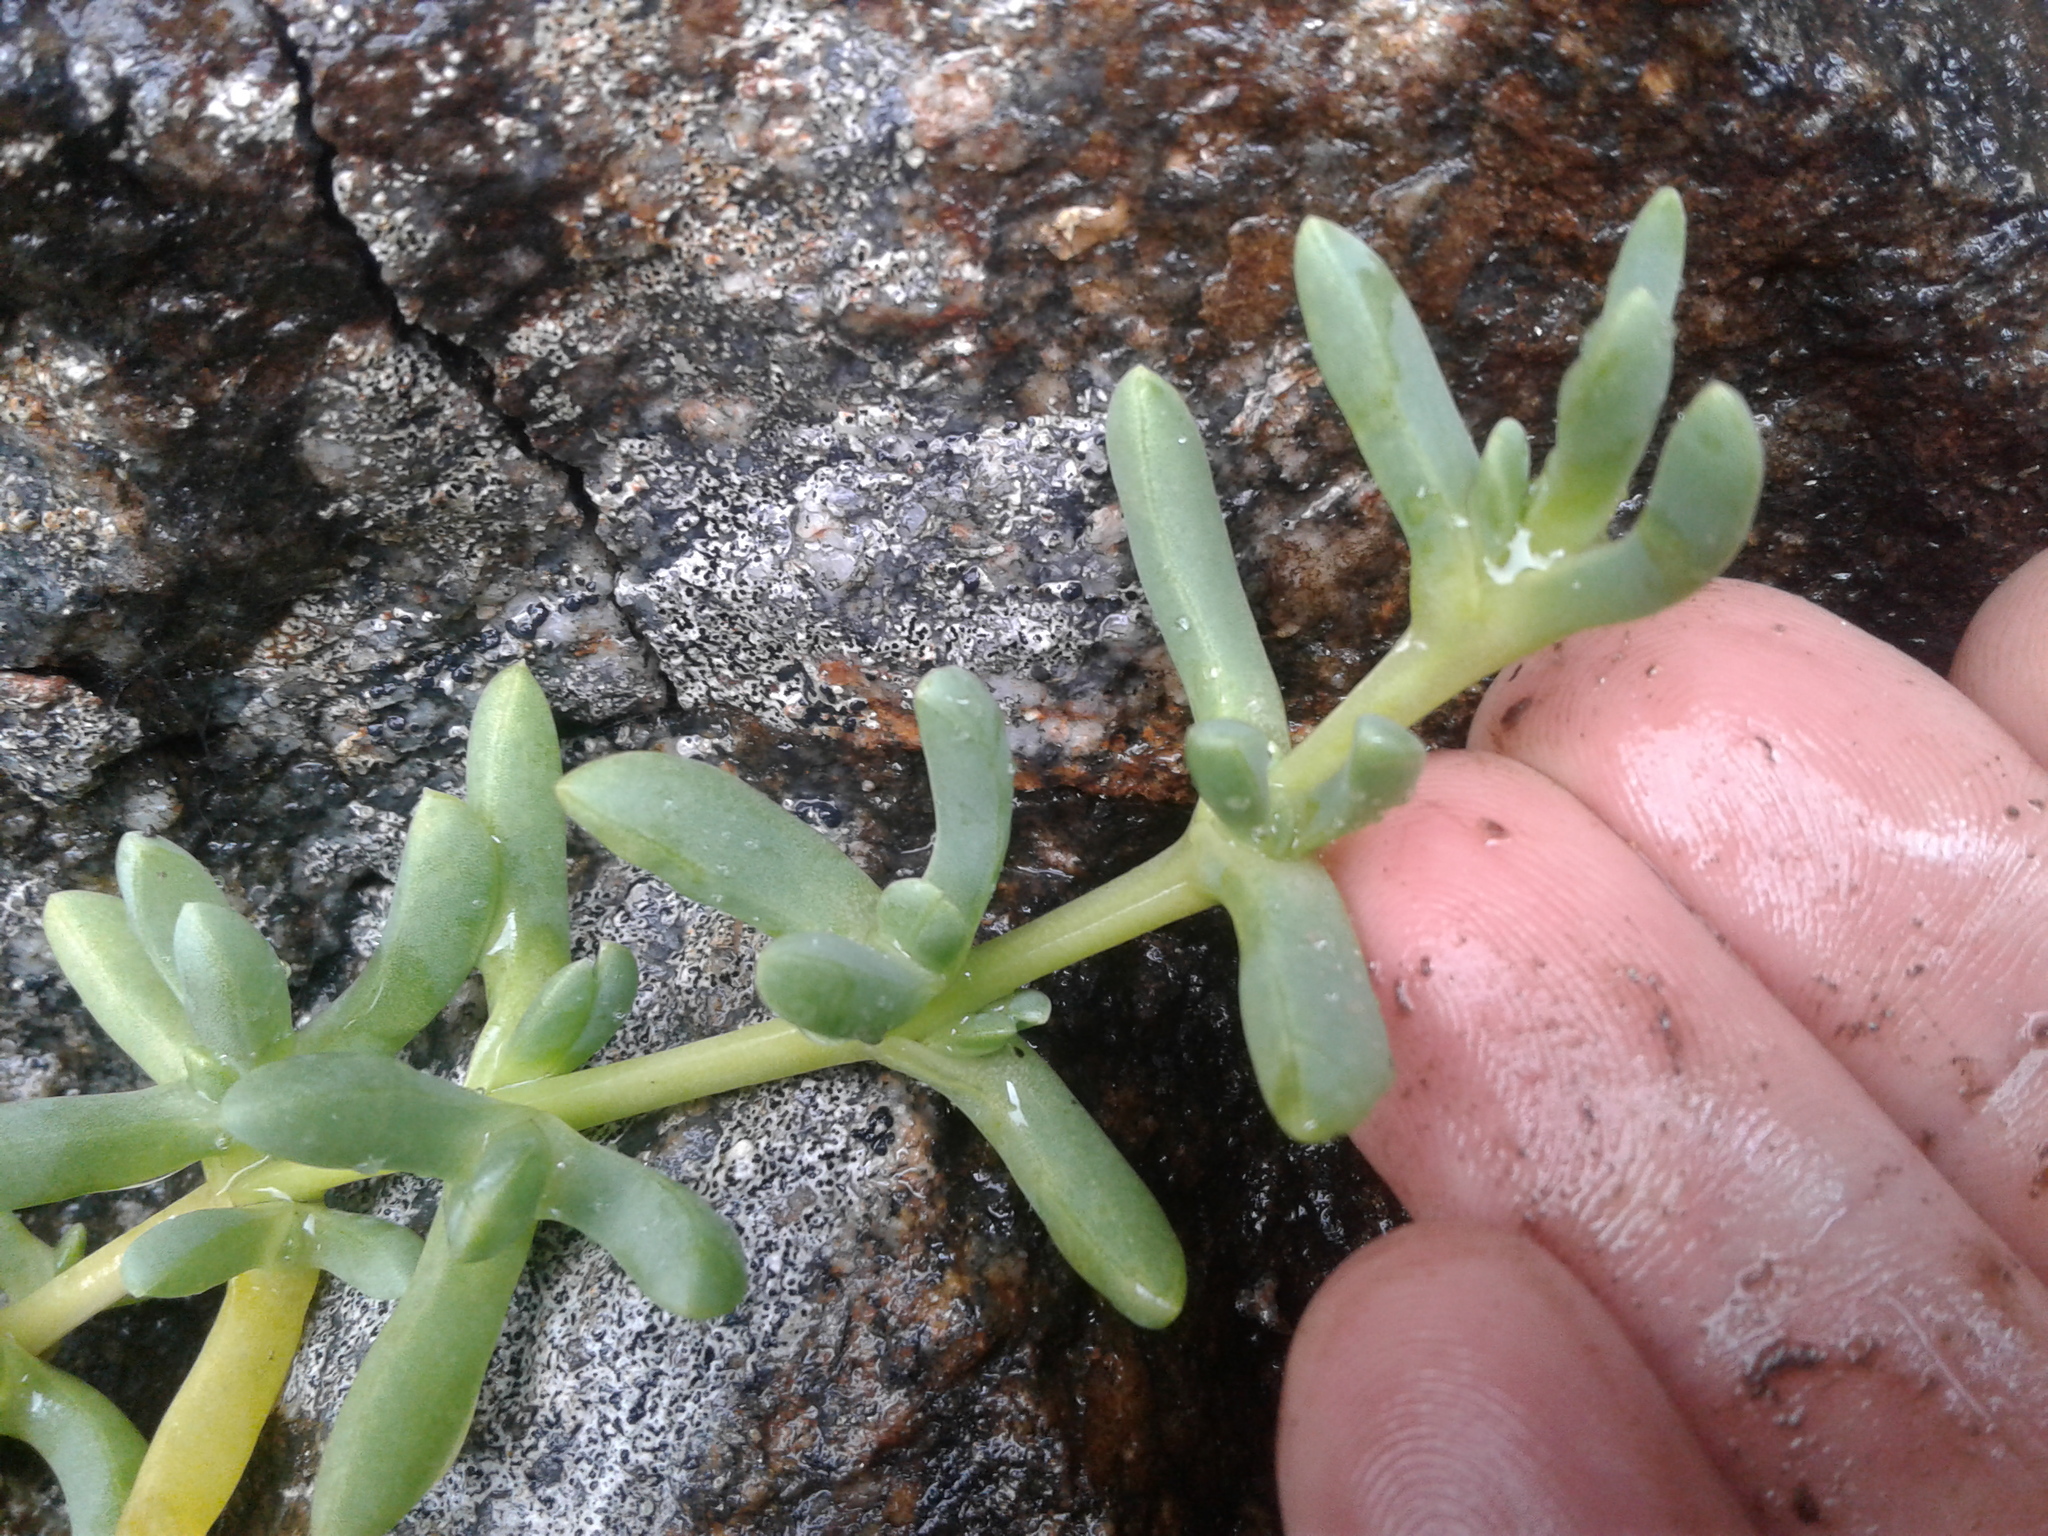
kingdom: Plantae
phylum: Tracheophyta
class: Magnoliopsida
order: Caryophyllales
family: Aizoaceae
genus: Disphyma
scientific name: Disphyma australe
